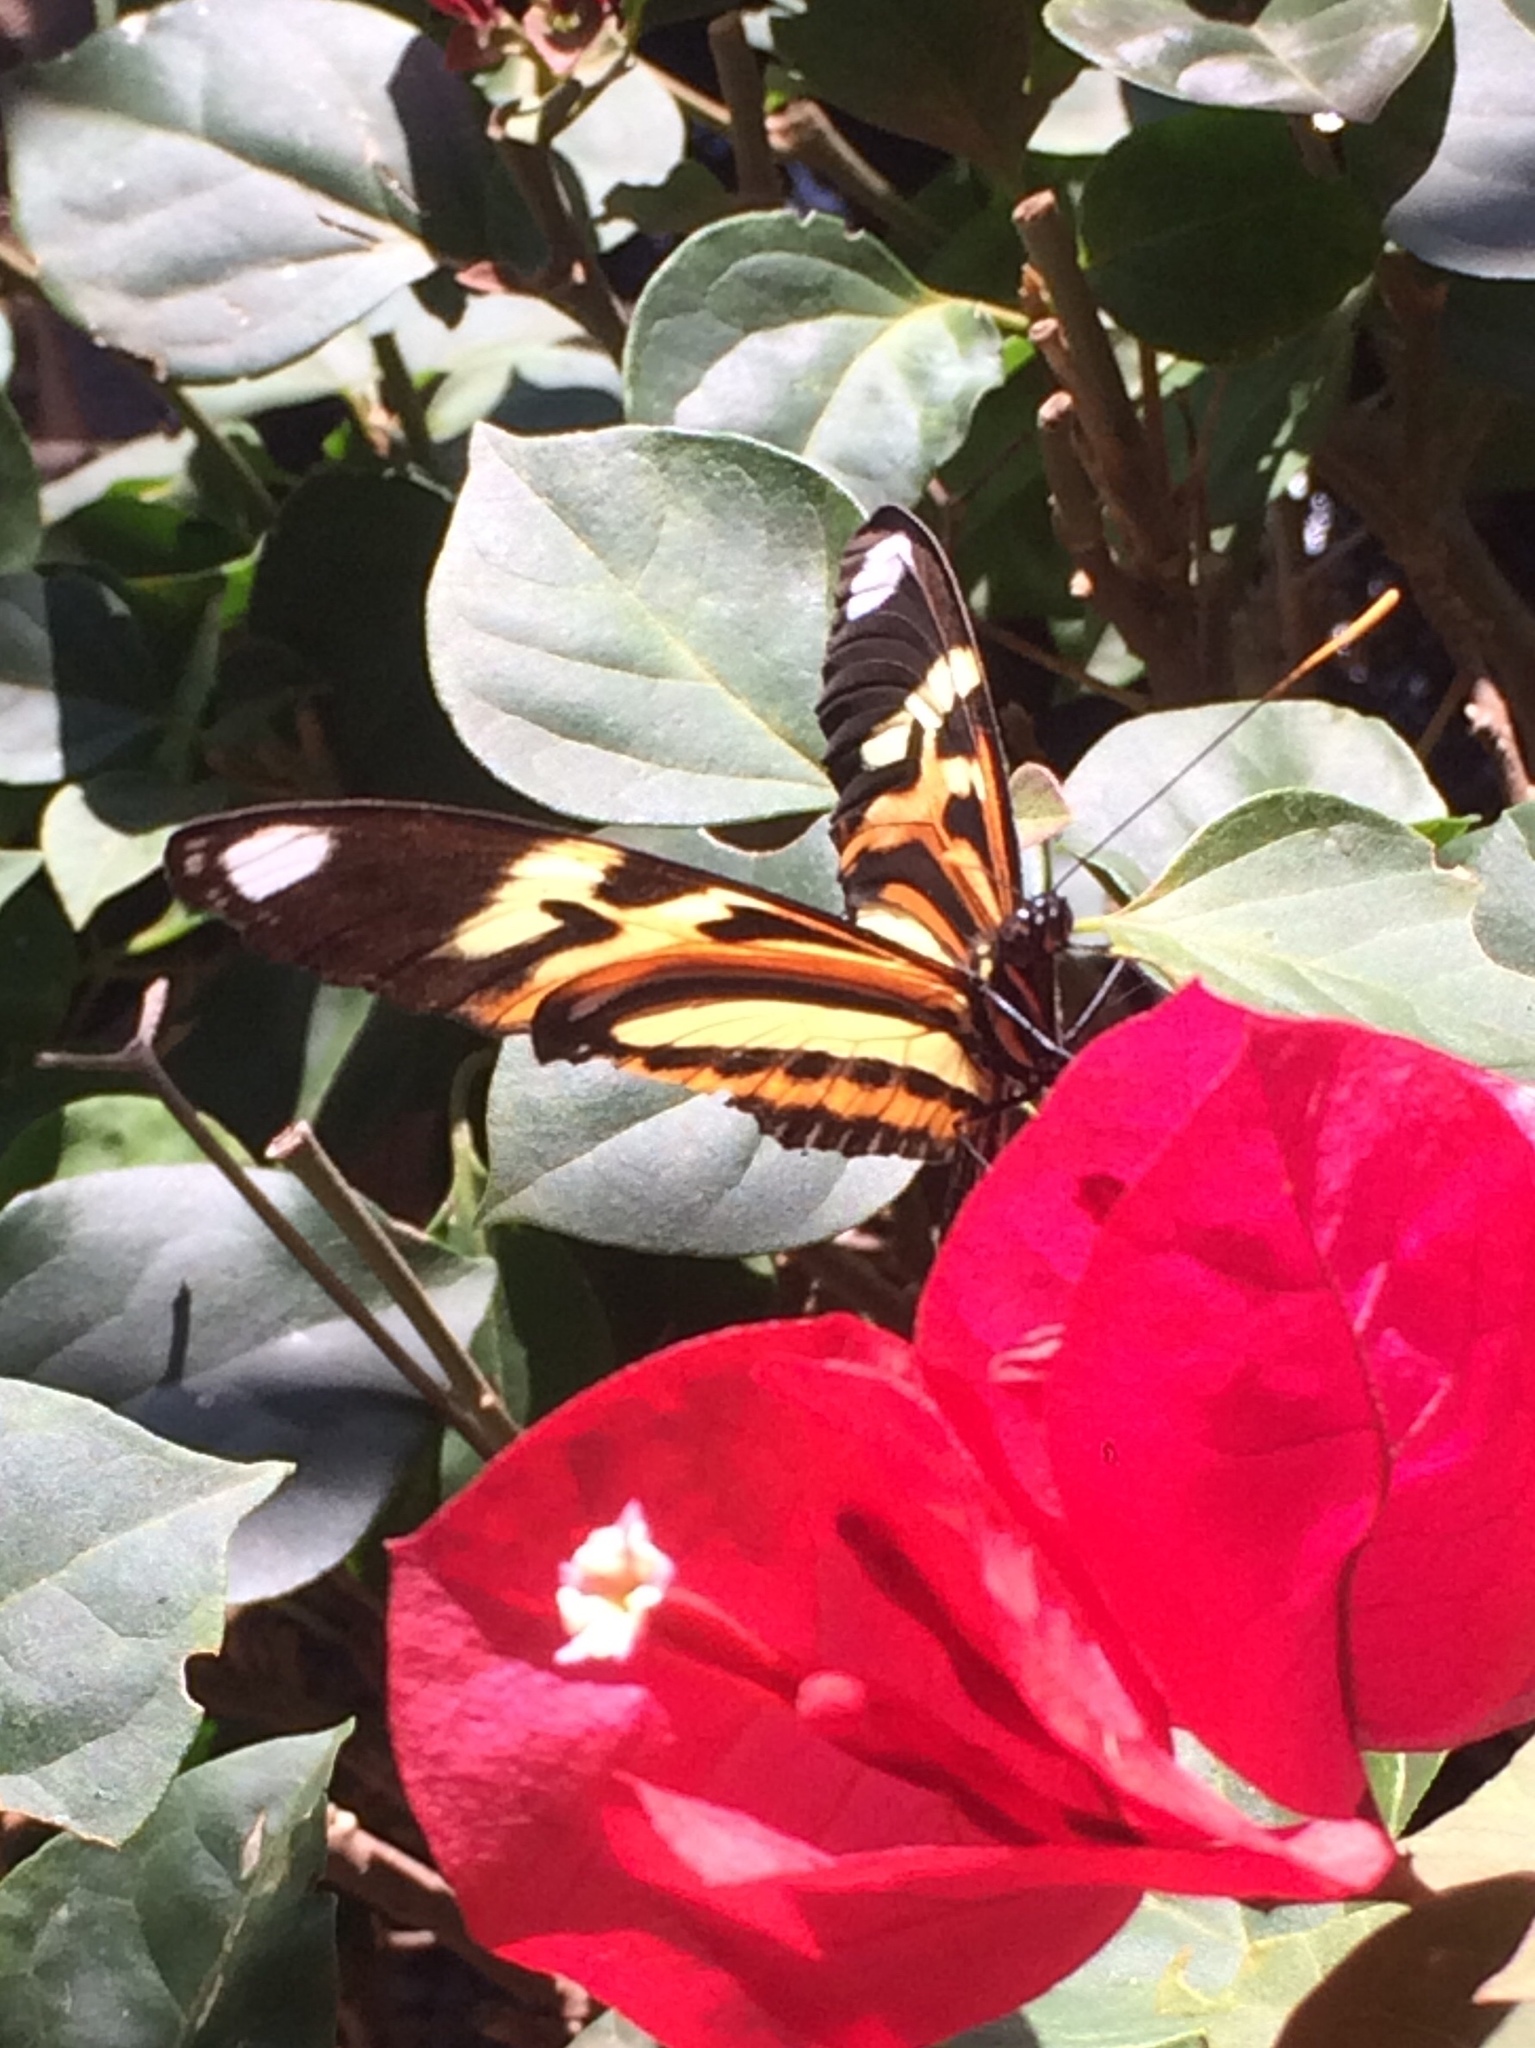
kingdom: Animalia
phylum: Arthropoda
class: Insecta
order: Lepidoptera
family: Nymphalidae
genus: Heliconius
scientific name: Heliconius ethilla
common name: Ethilia longwing
